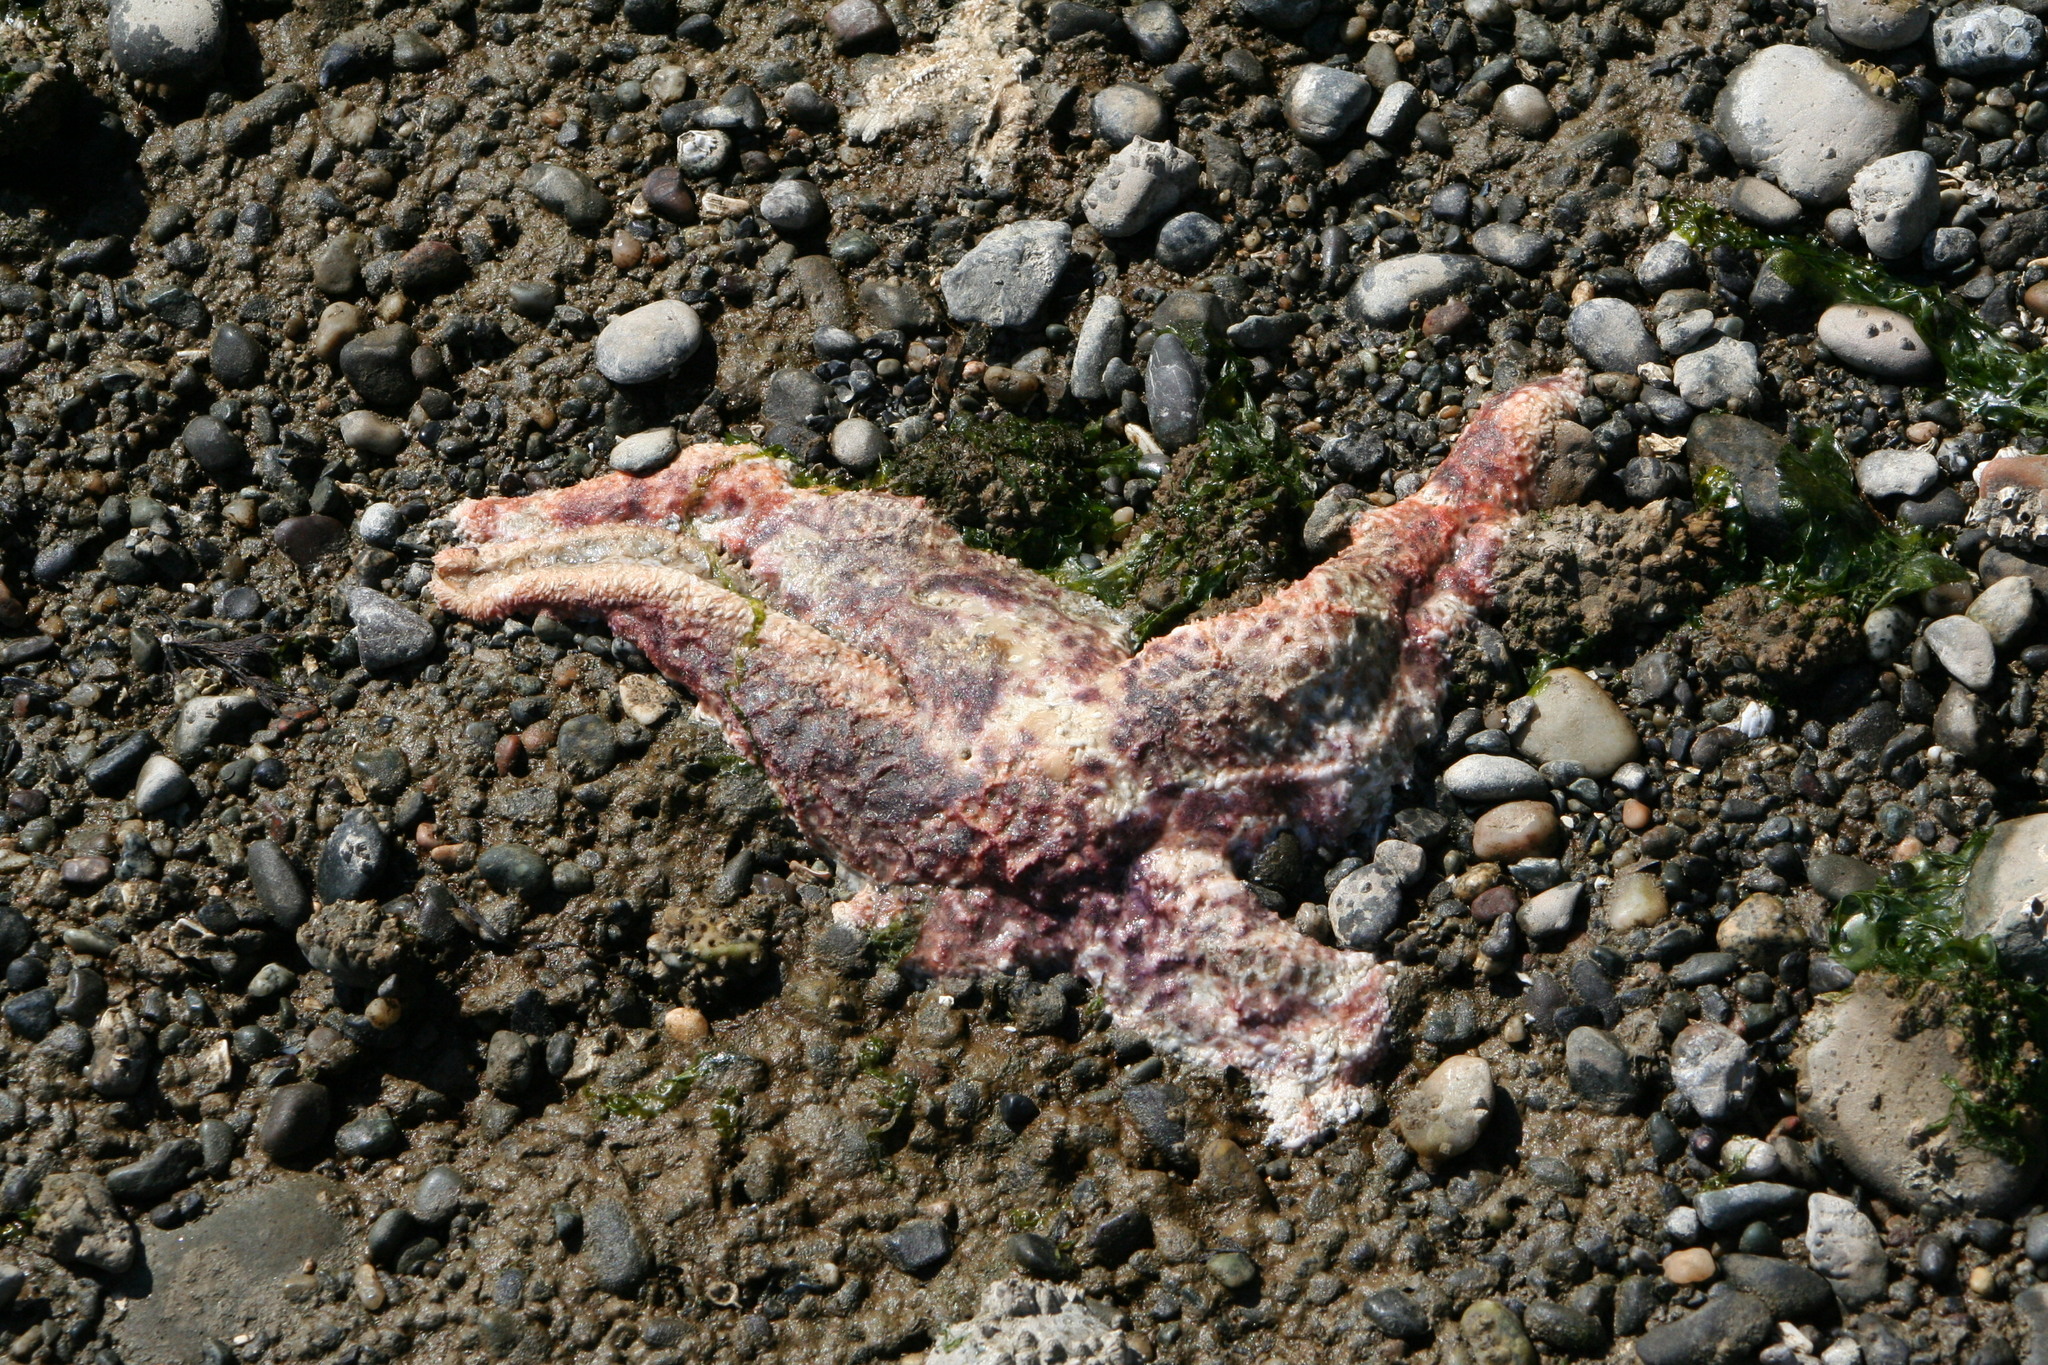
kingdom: Animalia
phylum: Echinodermata
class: Asteroidea
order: Forcipulatida
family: Asteriidae
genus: Pisaster
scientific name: Pisaster ochraceus
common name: Ochre stars
